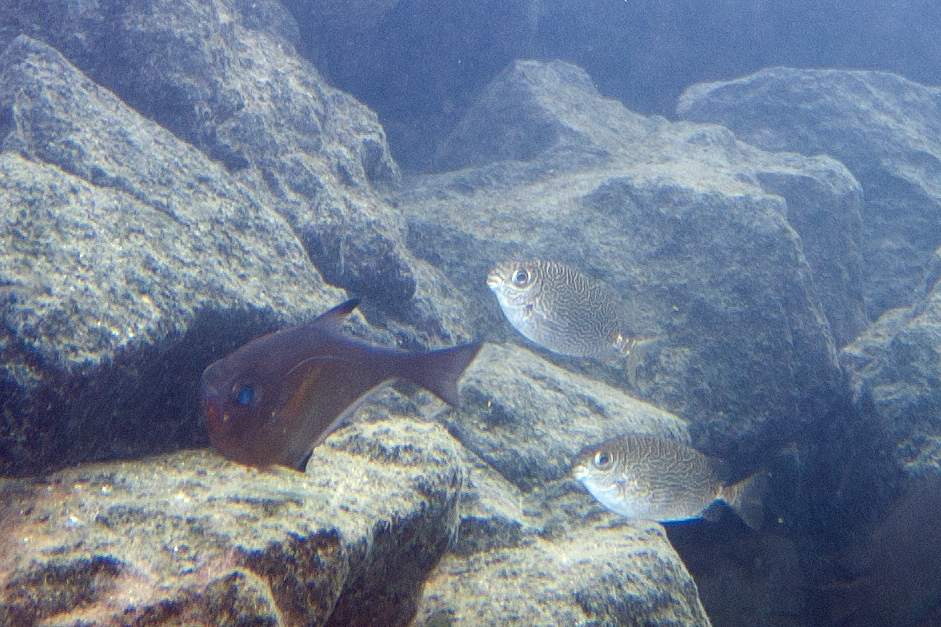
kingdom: Animalia
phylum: Chordata
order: Perciformes
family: Siganidae
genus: Siganus
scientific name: Siganus spinus
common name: Scribbled rabbitfish
